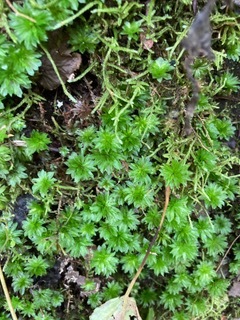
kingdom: Plantae
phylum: Bryophyta
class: Bryopsida
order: Bryales
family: Bryaceae
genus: Rhodobryum
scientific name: Rhodobryum ontariense
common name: Ontario rhodobryum moss
